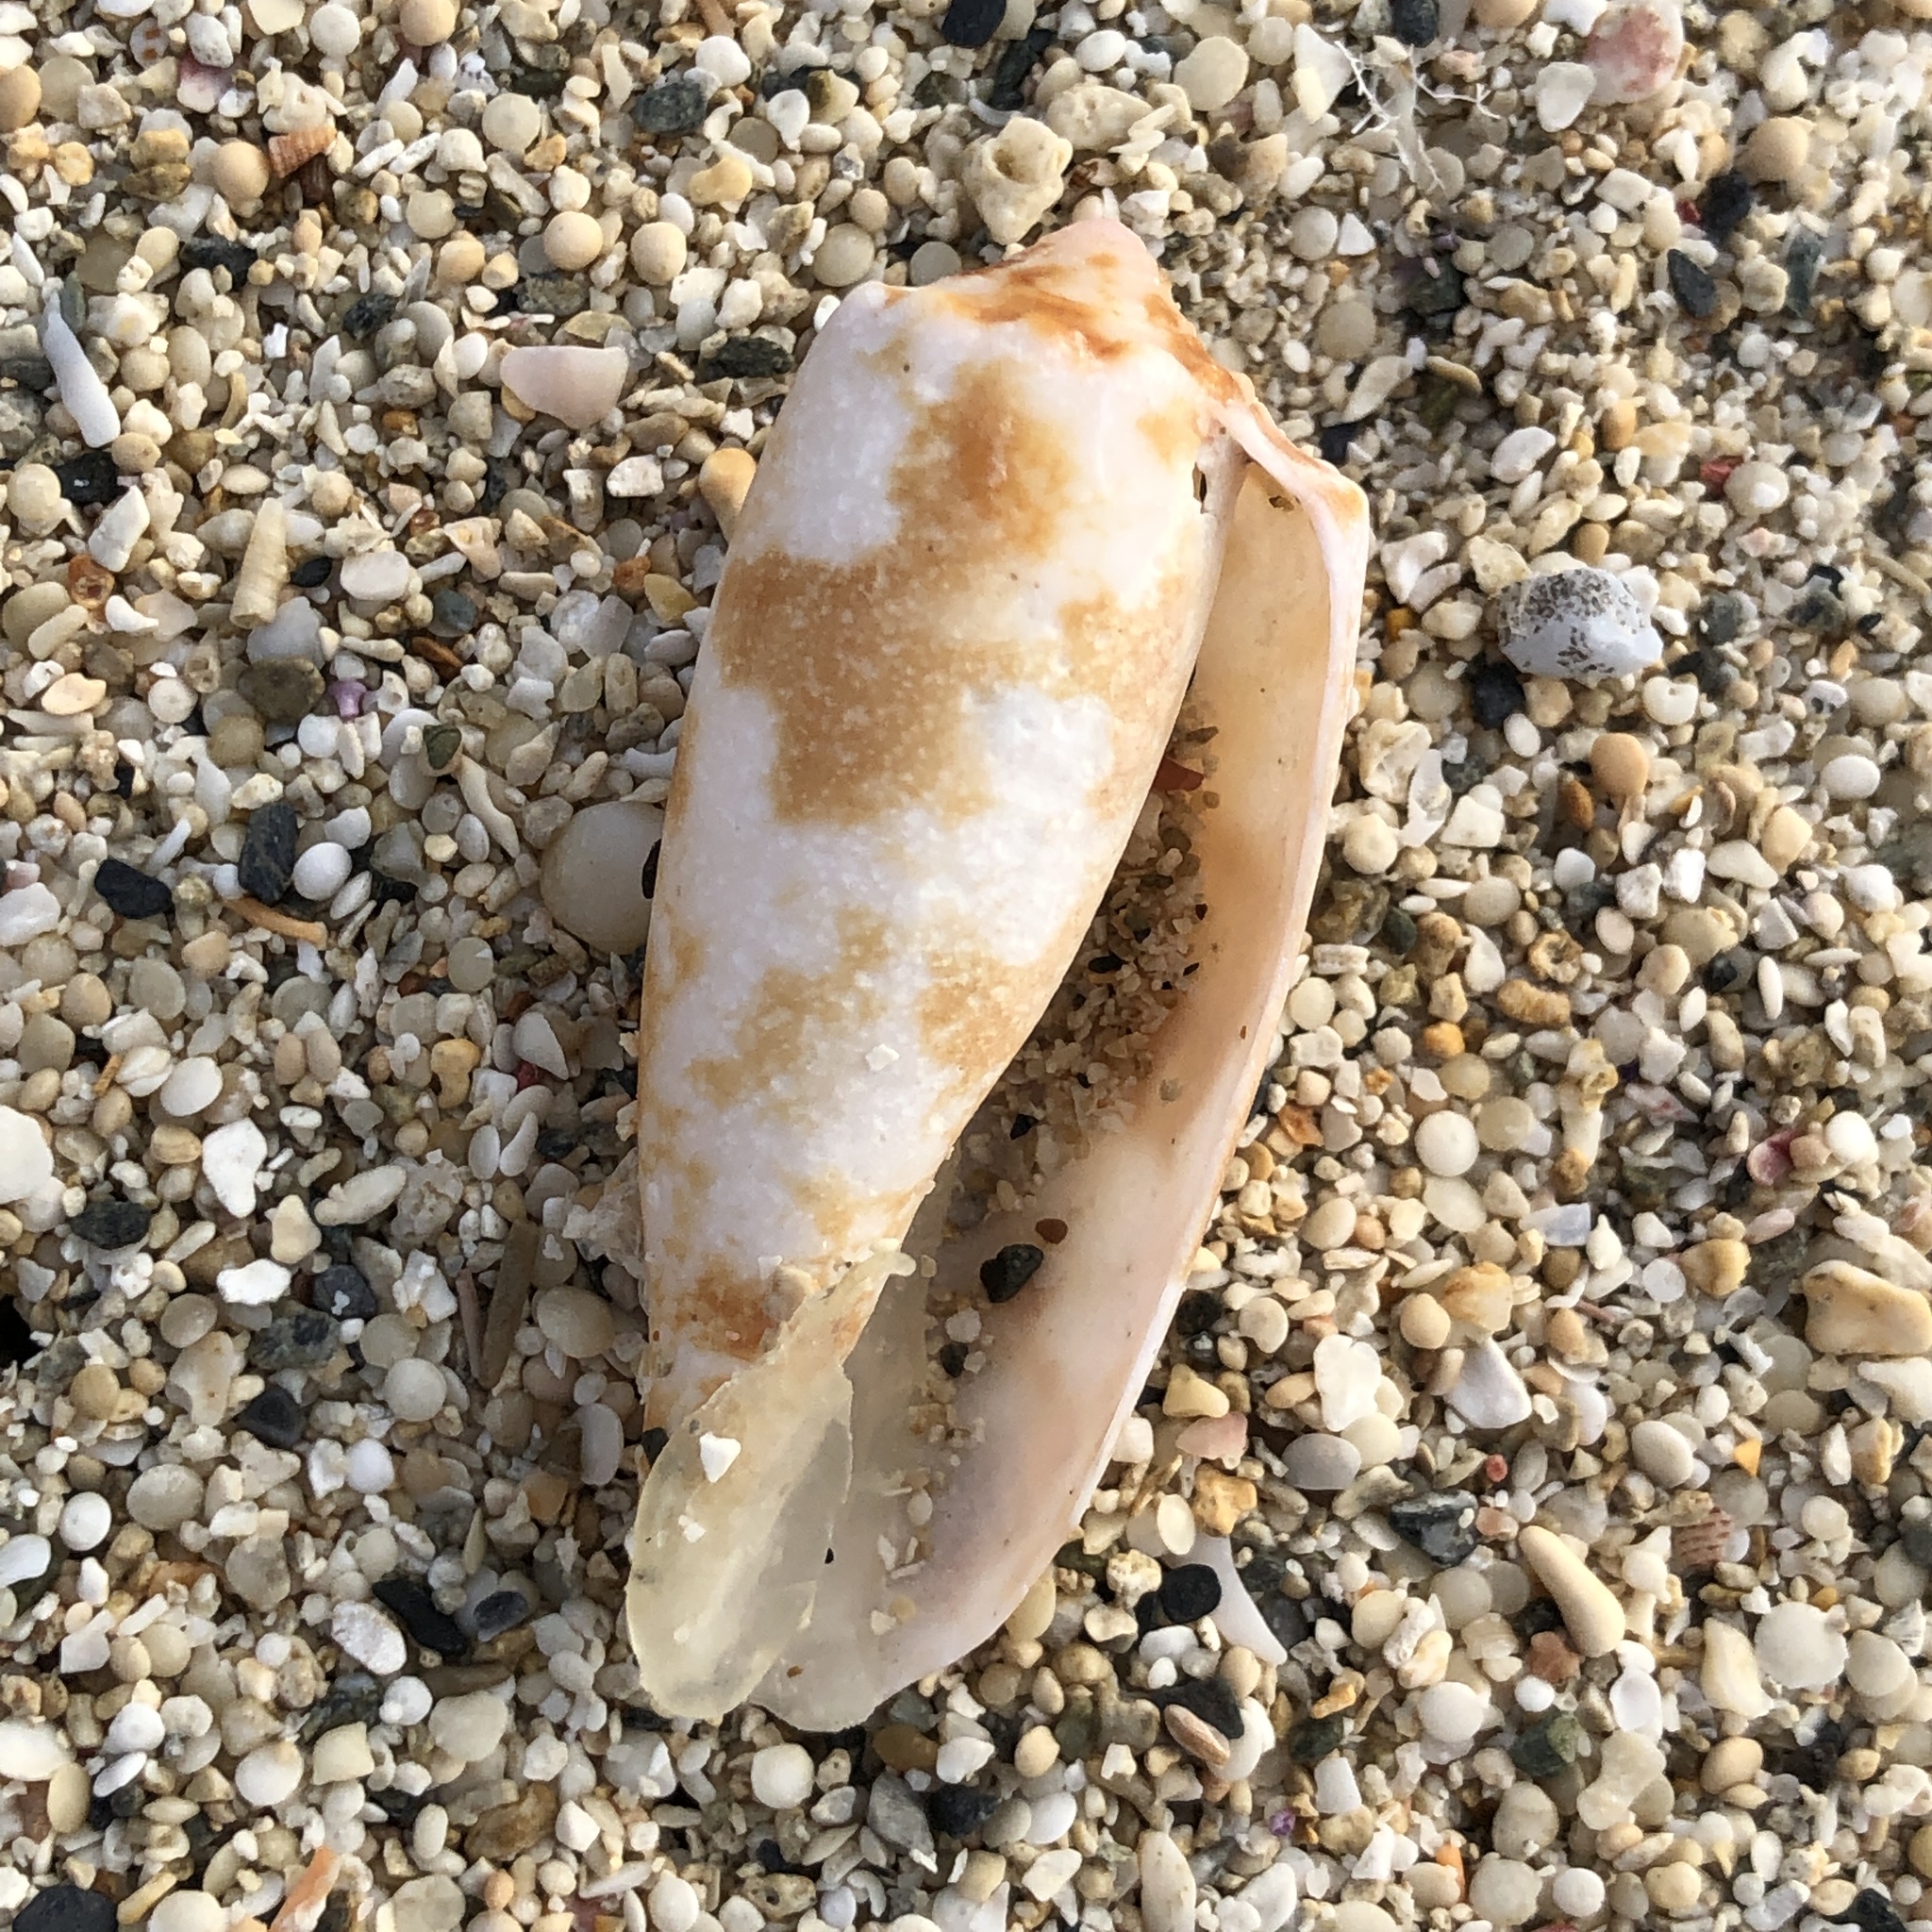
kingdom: Animalia
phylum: Mollusca
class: Gastropoda
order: Neogastropoda
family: Conidae
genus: Conus
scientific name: Conus geographus
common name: Geographer cone
